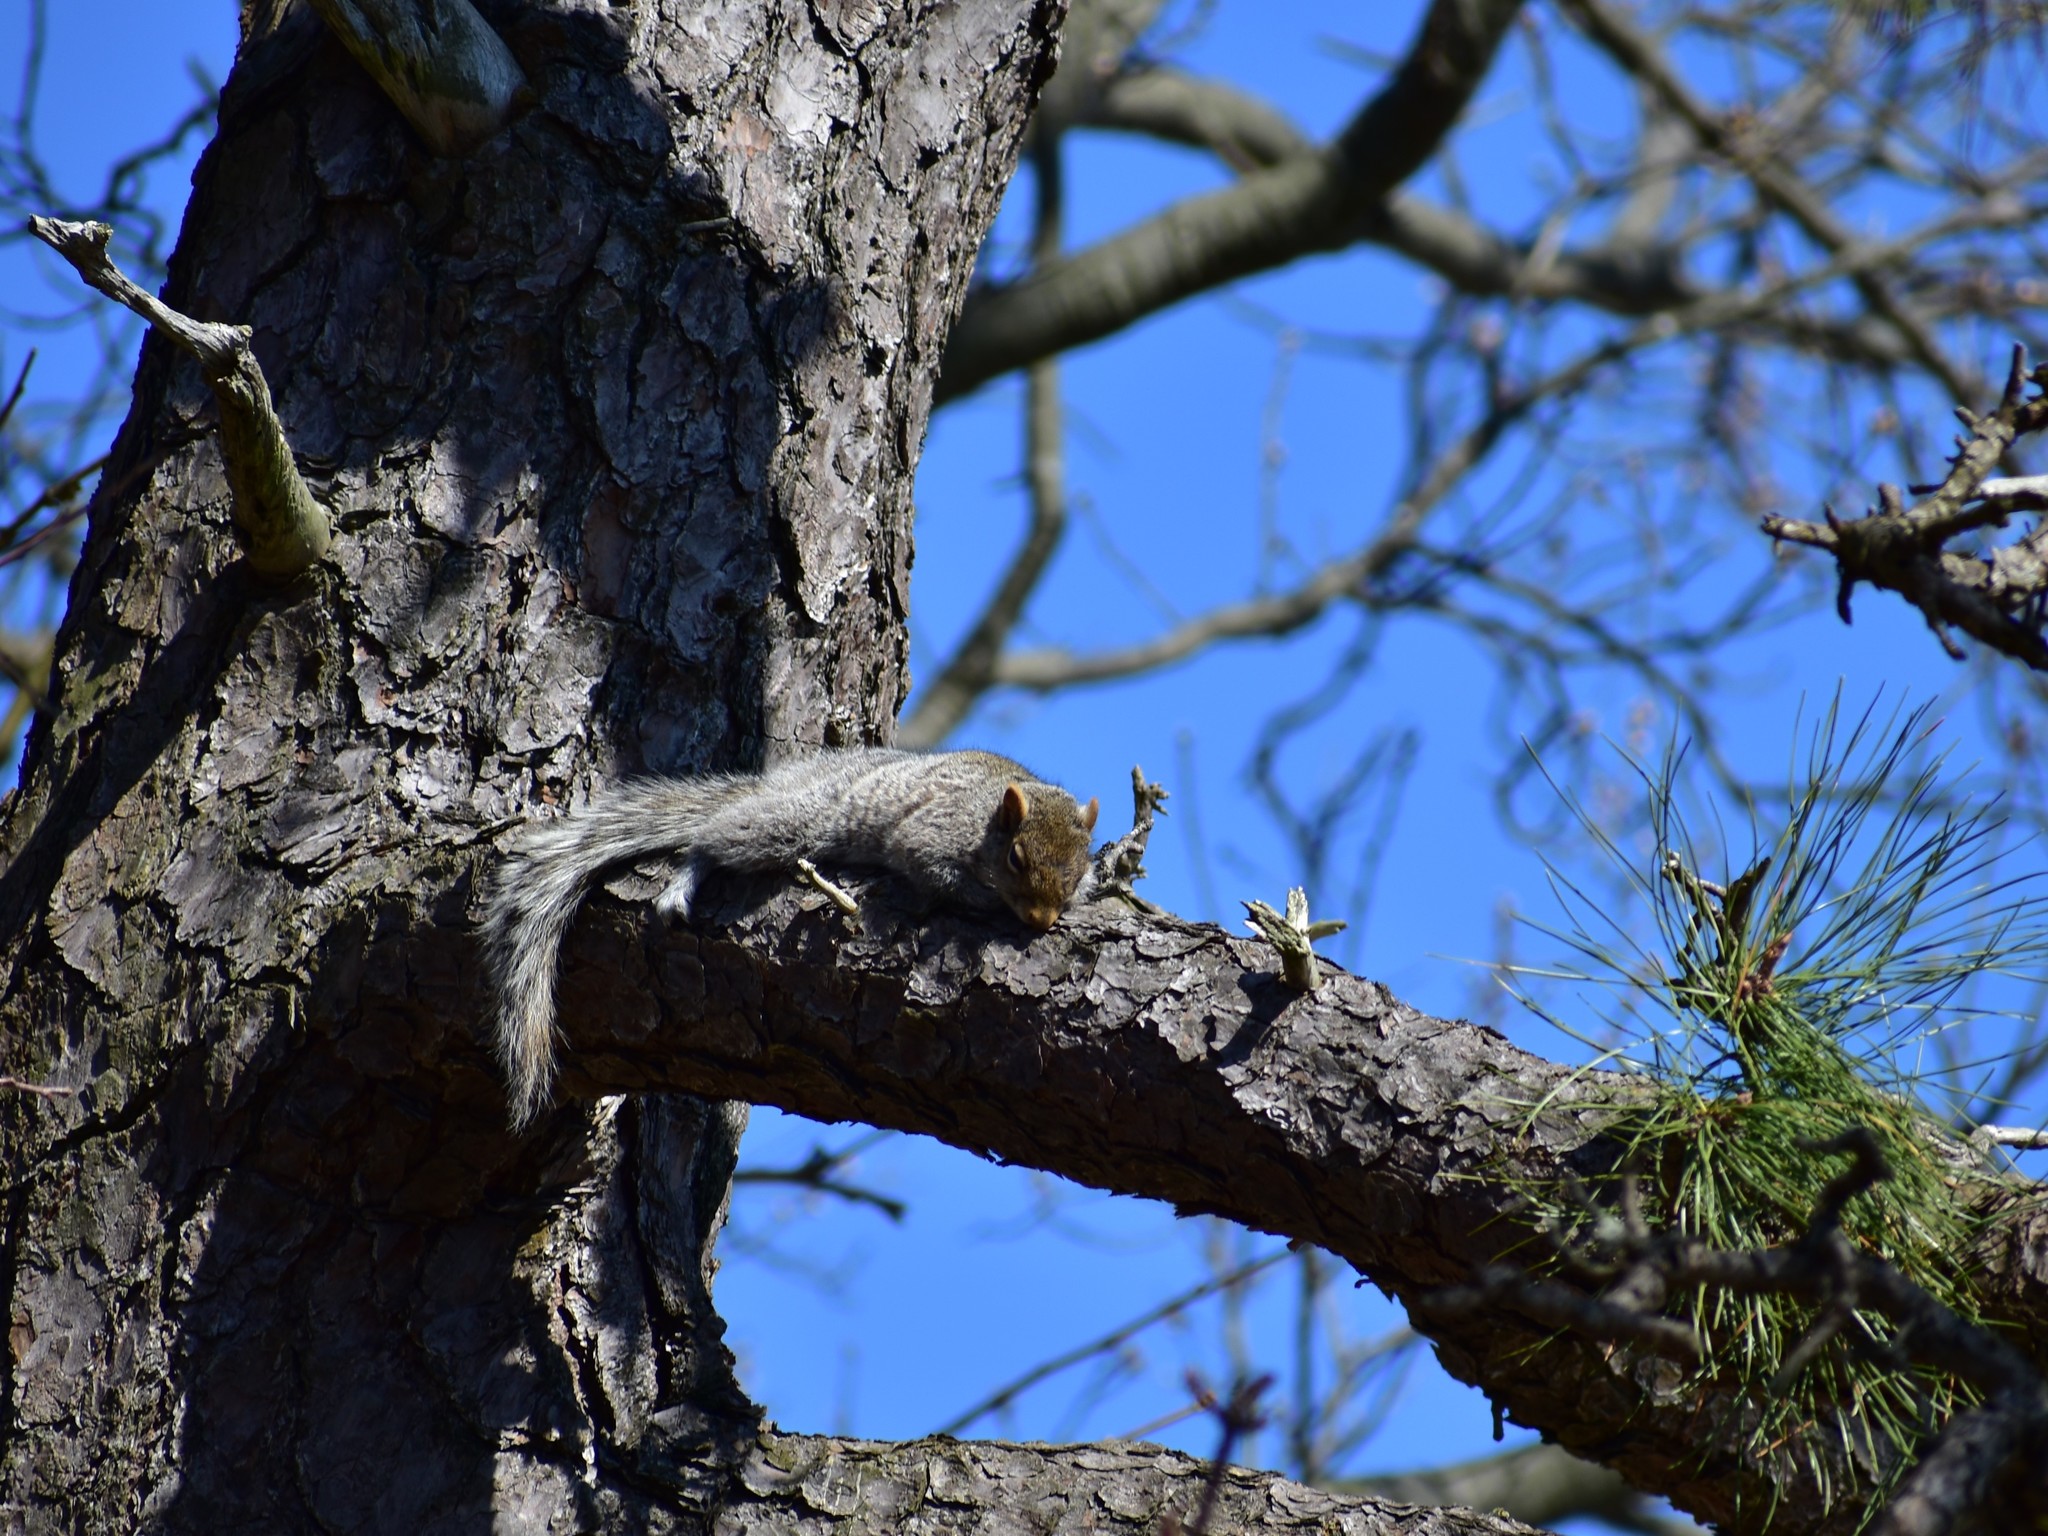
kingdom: Animalia
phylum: Chordata
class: Mammalia
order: Rodentia
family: Sciuridae
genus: Sciurus
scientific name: Sciurus carolinensis
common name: Eastern gray squirrel
